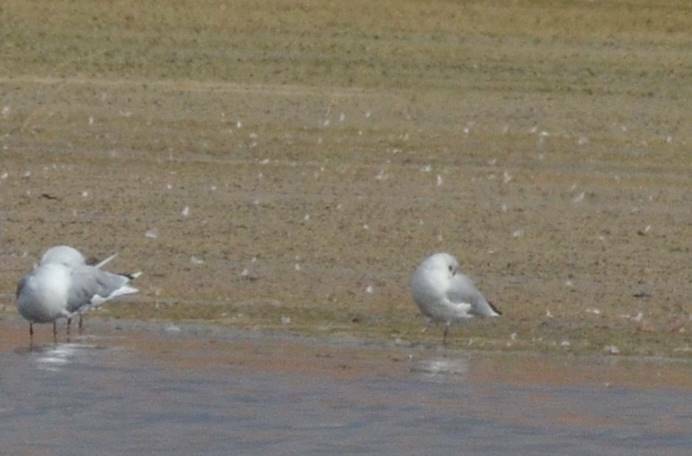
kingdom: Animalia
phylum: Chordata
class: Aves
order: Charadriiformes
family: Laridae
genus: Chroicocephalus
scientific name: Chroicocephalus ridibundus
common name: Black-headed gull
